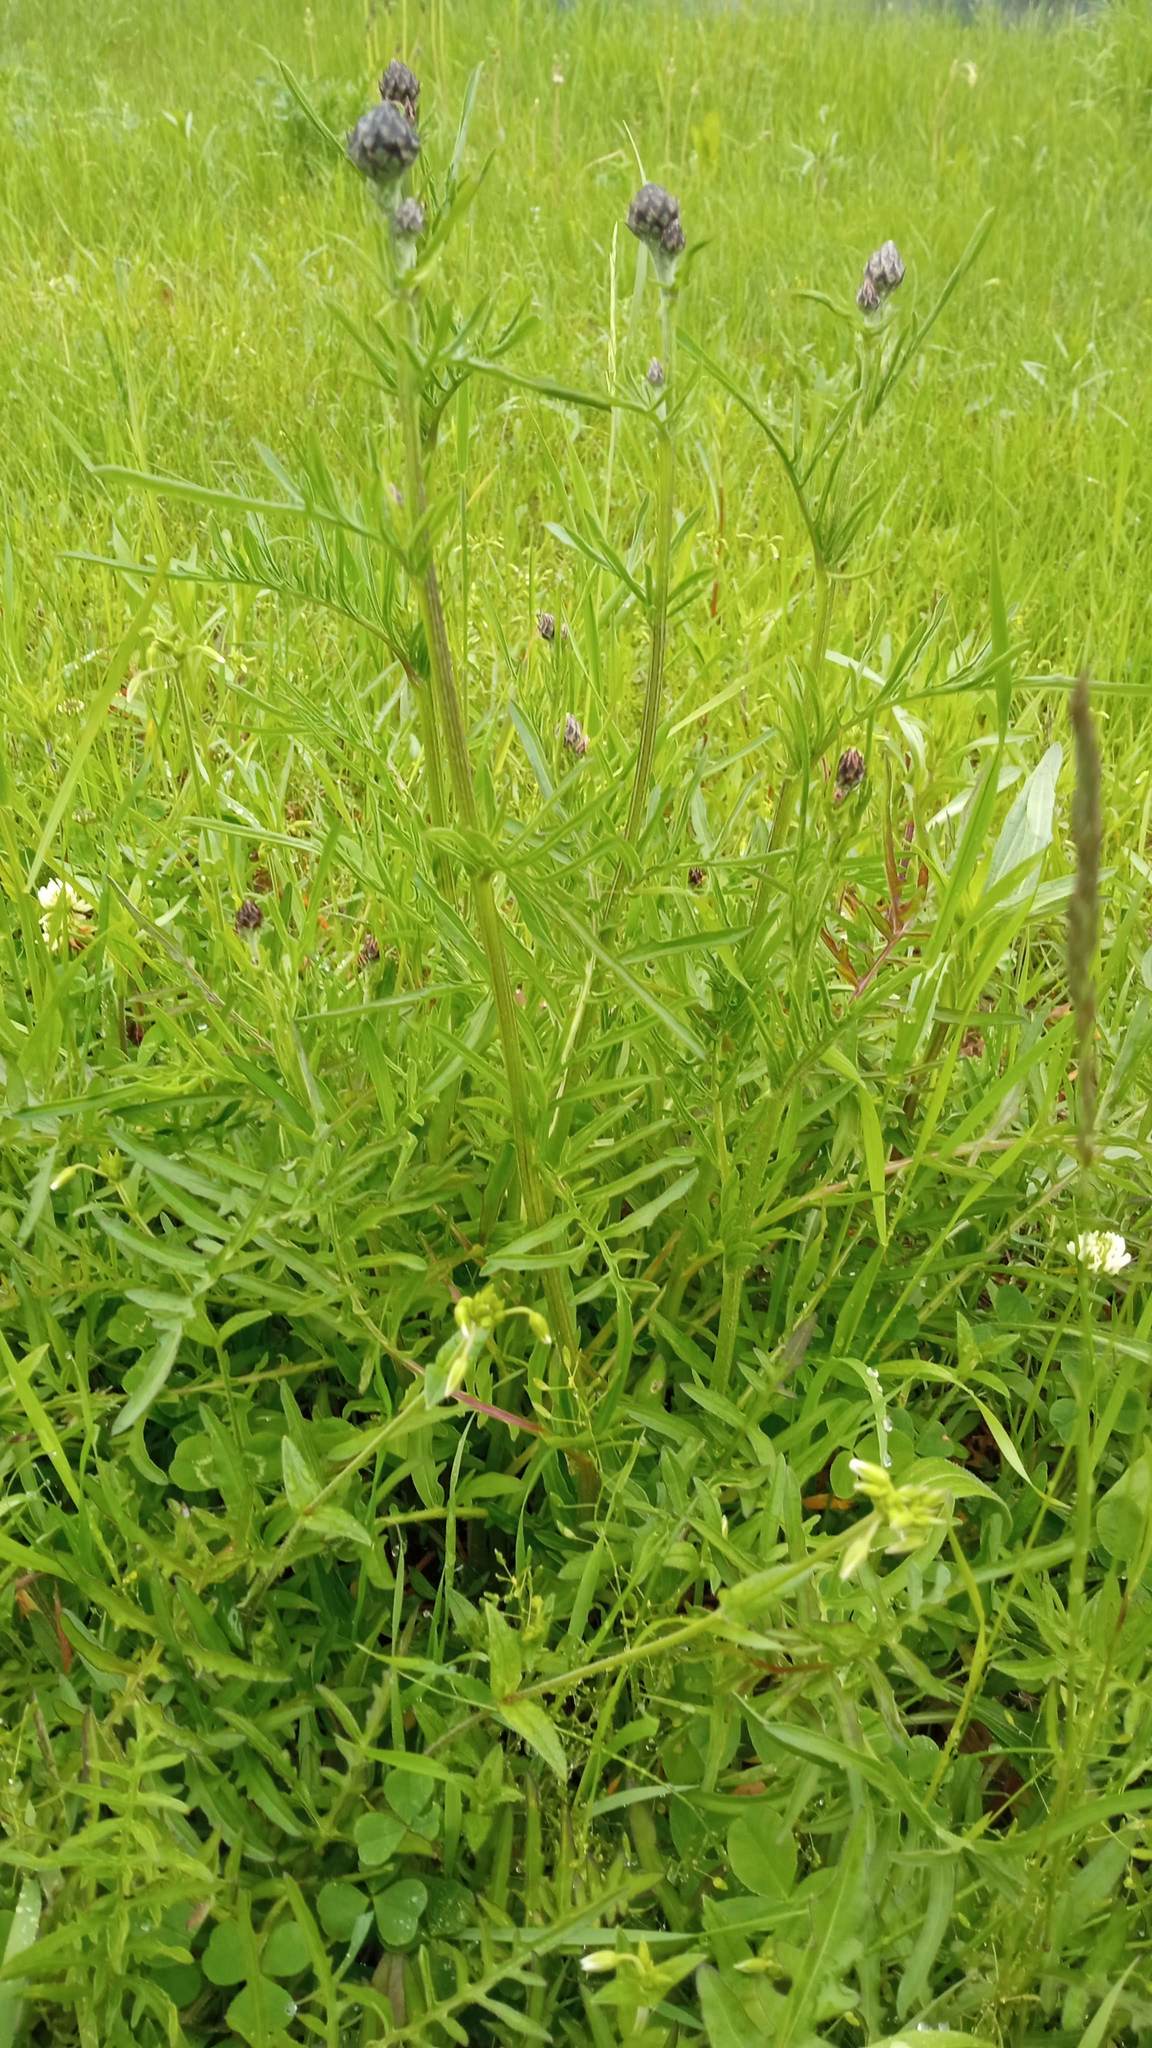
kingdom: Plantae
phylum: Tracheophyta
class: Magnoliopsida
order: Asterales
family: Asteraceae
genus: Centaurea
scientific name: Centaurea scabiosa
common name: Greater knapweed
